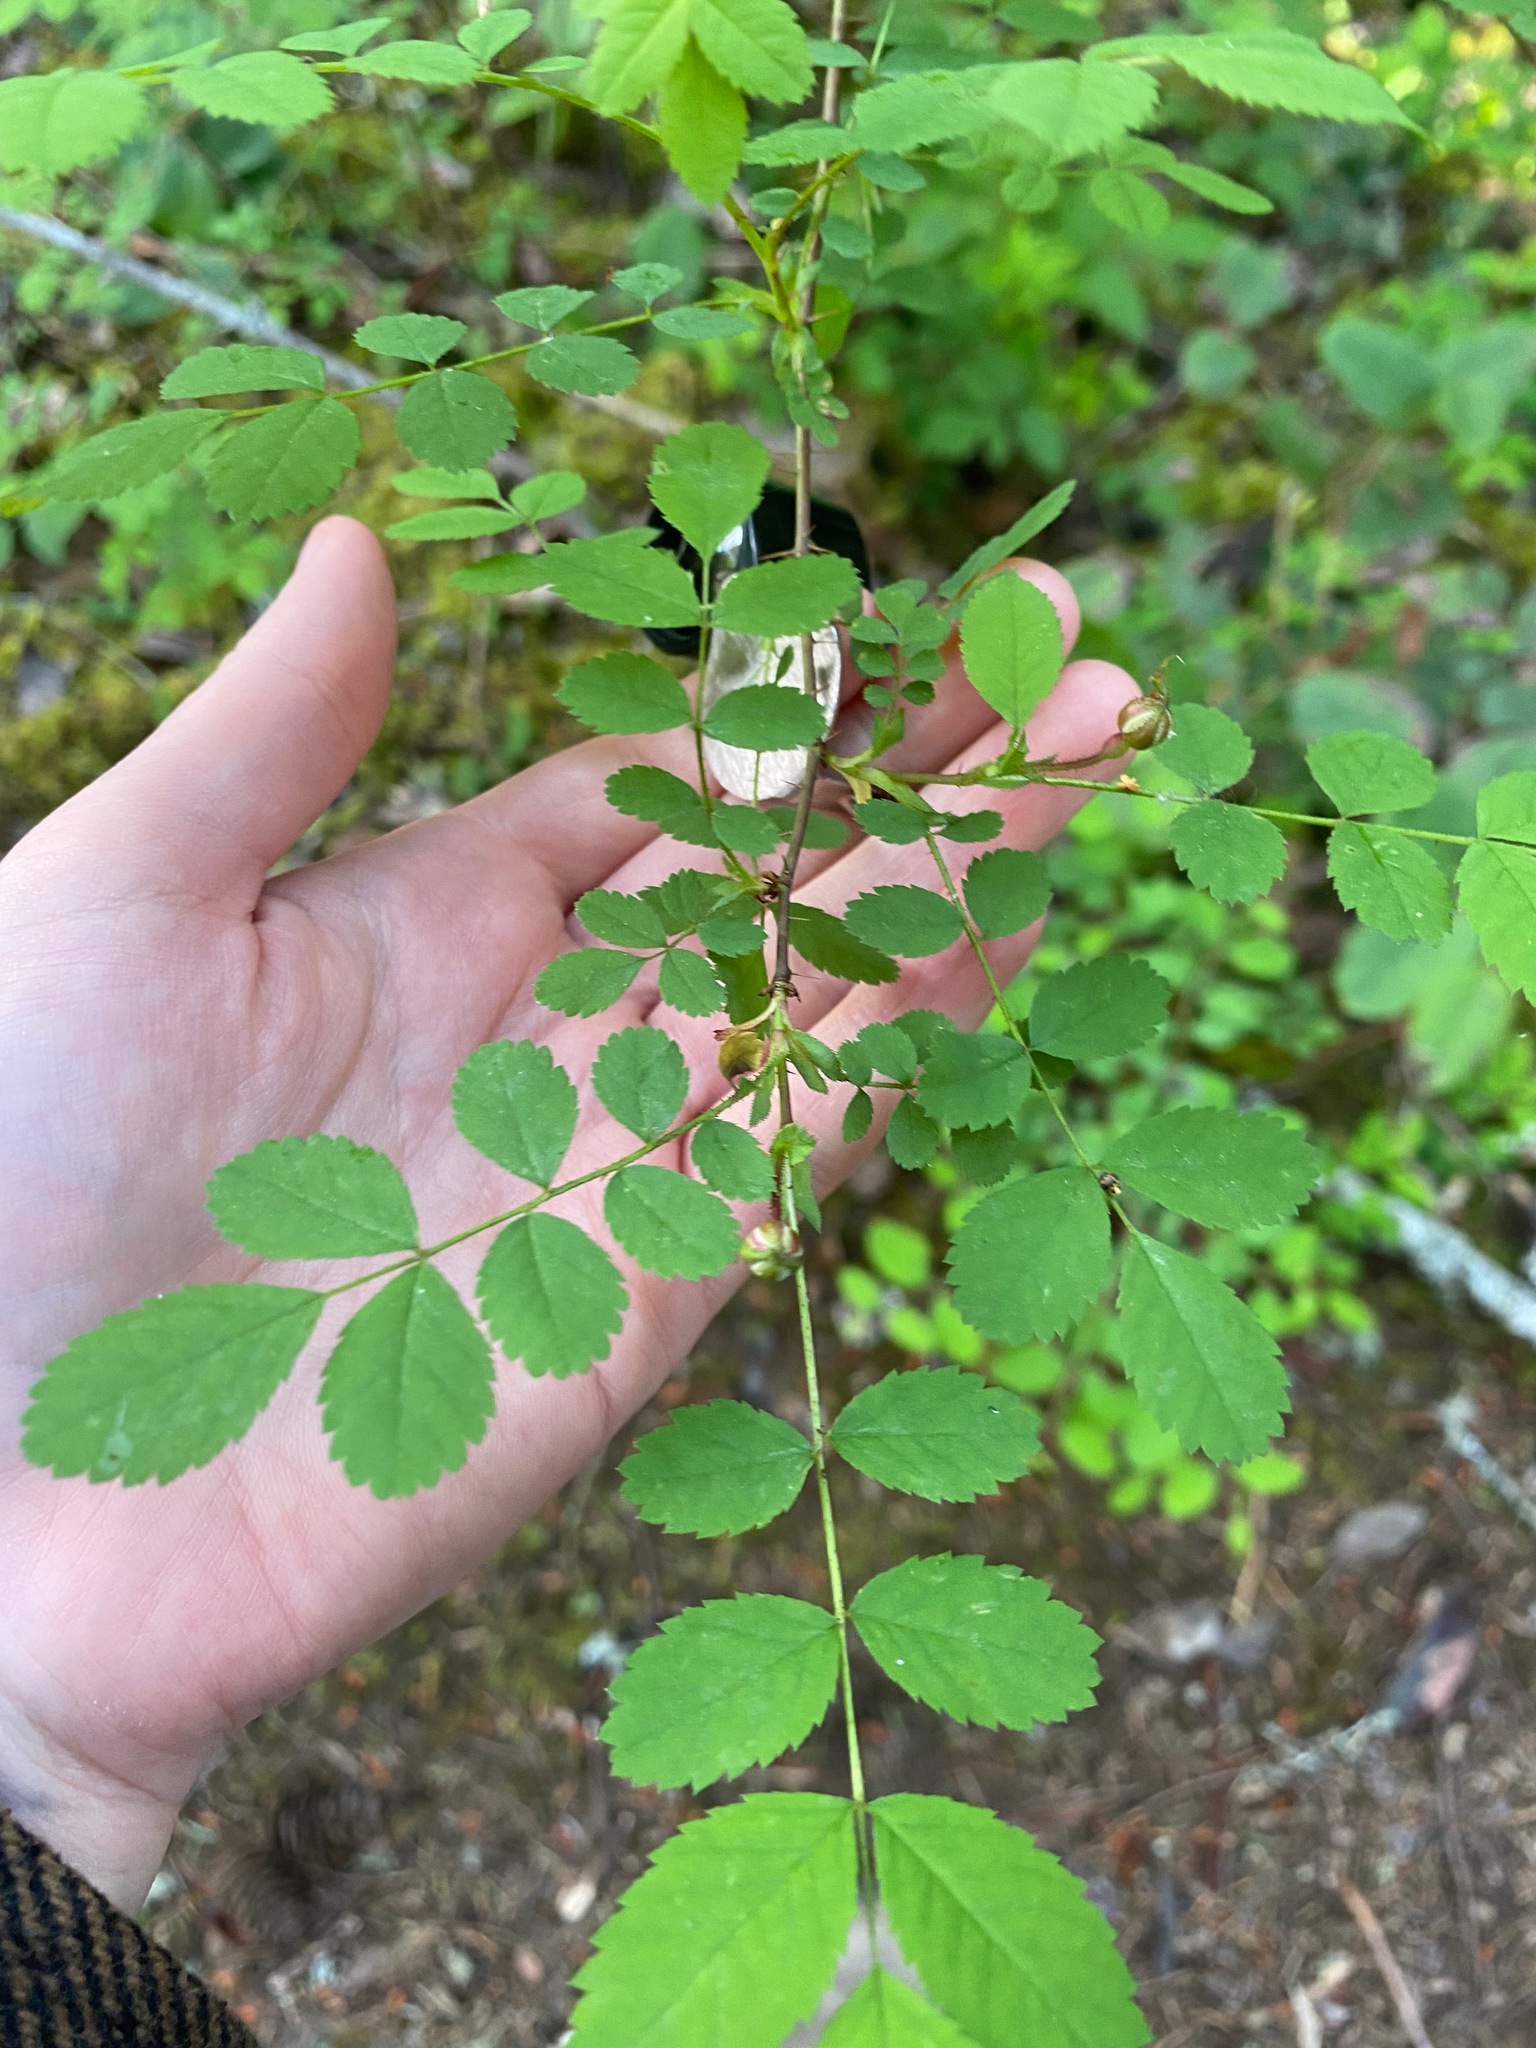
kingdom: Plantae
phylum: Tracheophyta
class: Magnoliopsida
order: Rosales
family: Rosaceae
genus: Rosa
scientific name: Rosa gymnocarpa
